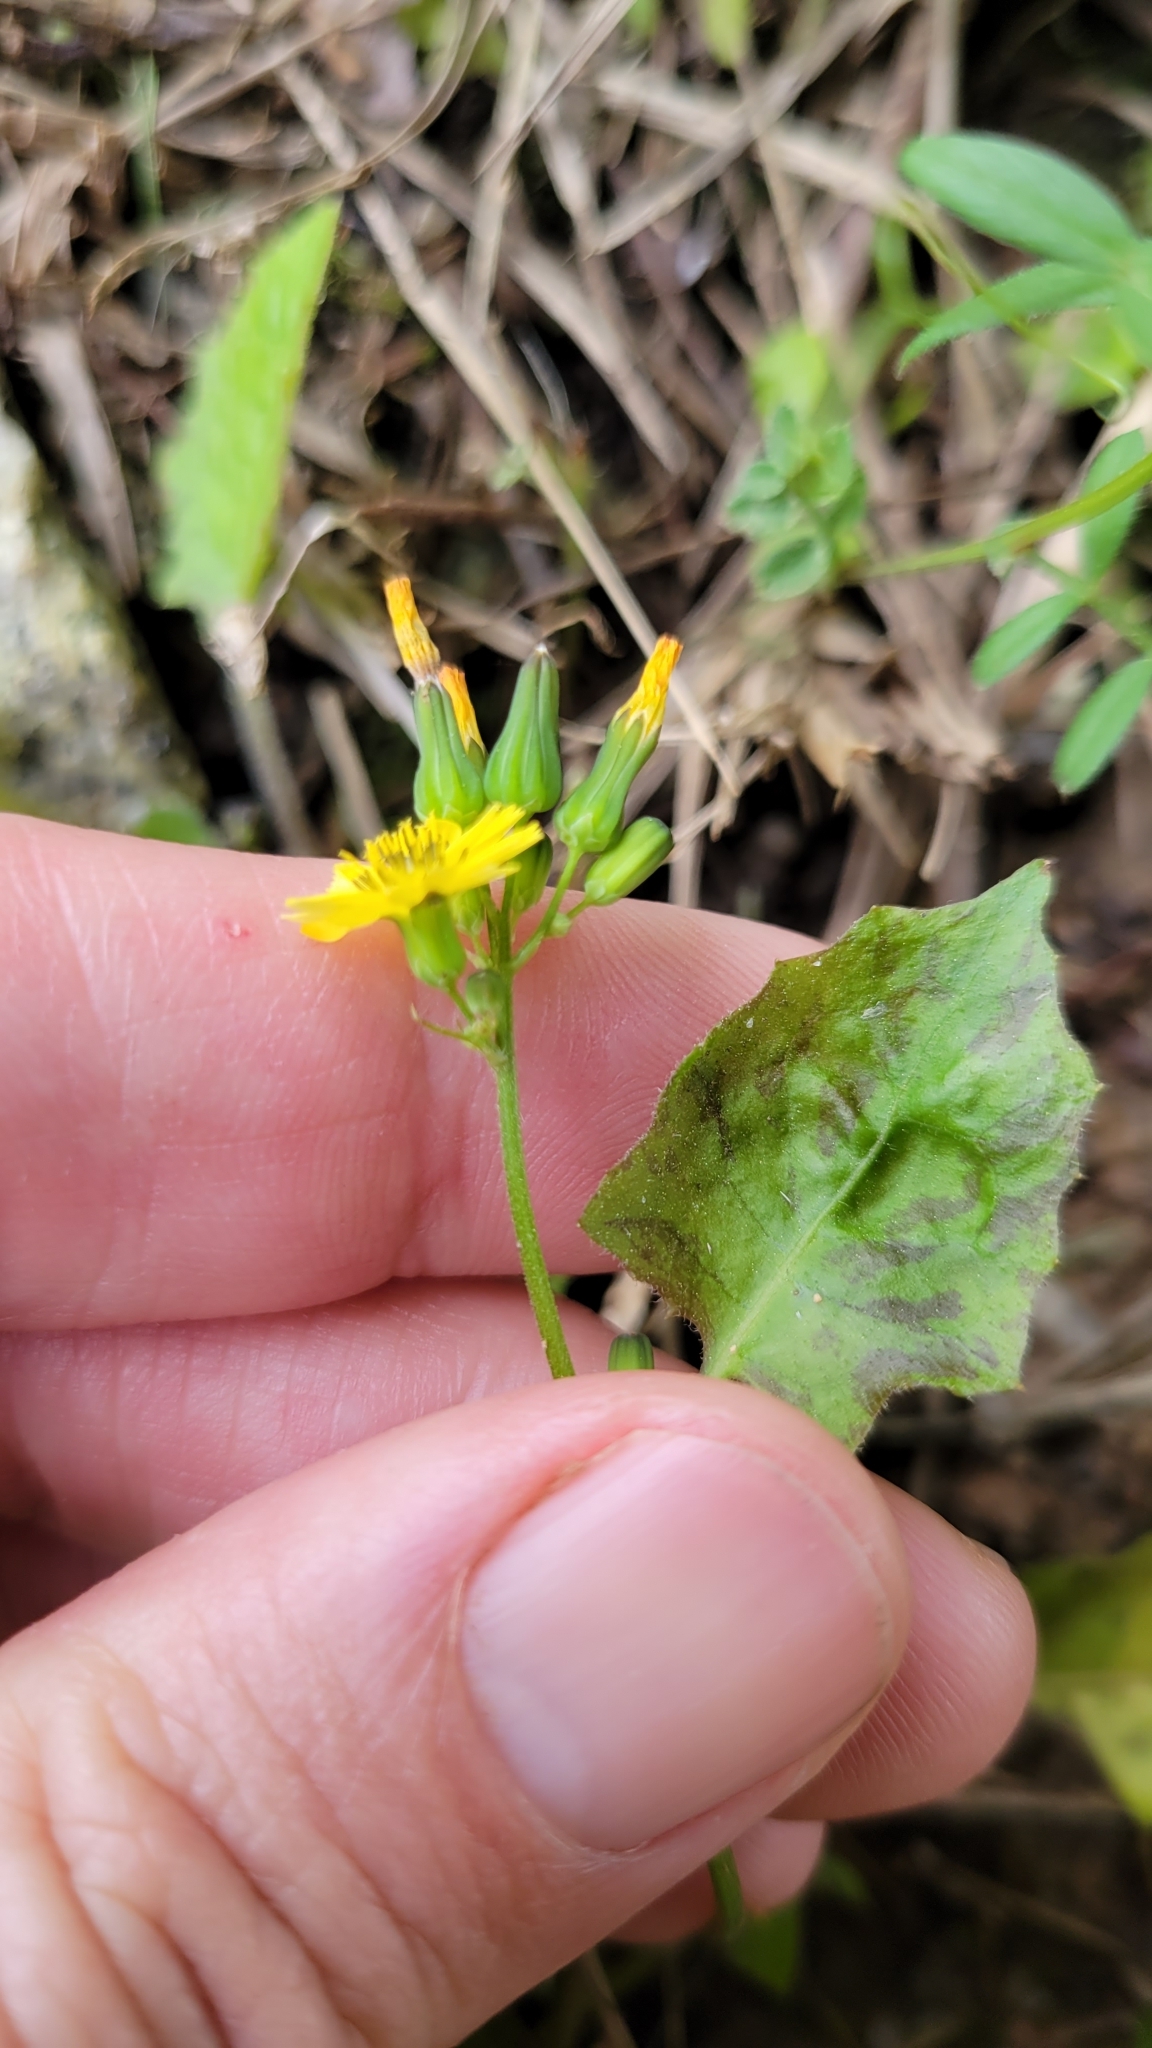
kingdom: Plantae
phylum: Tracheophyta
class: Magnoliopsida
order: Asterales
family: Asteraceae
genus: Youngia
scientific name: Youngia japonica
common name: Oriental false hawksbeard
